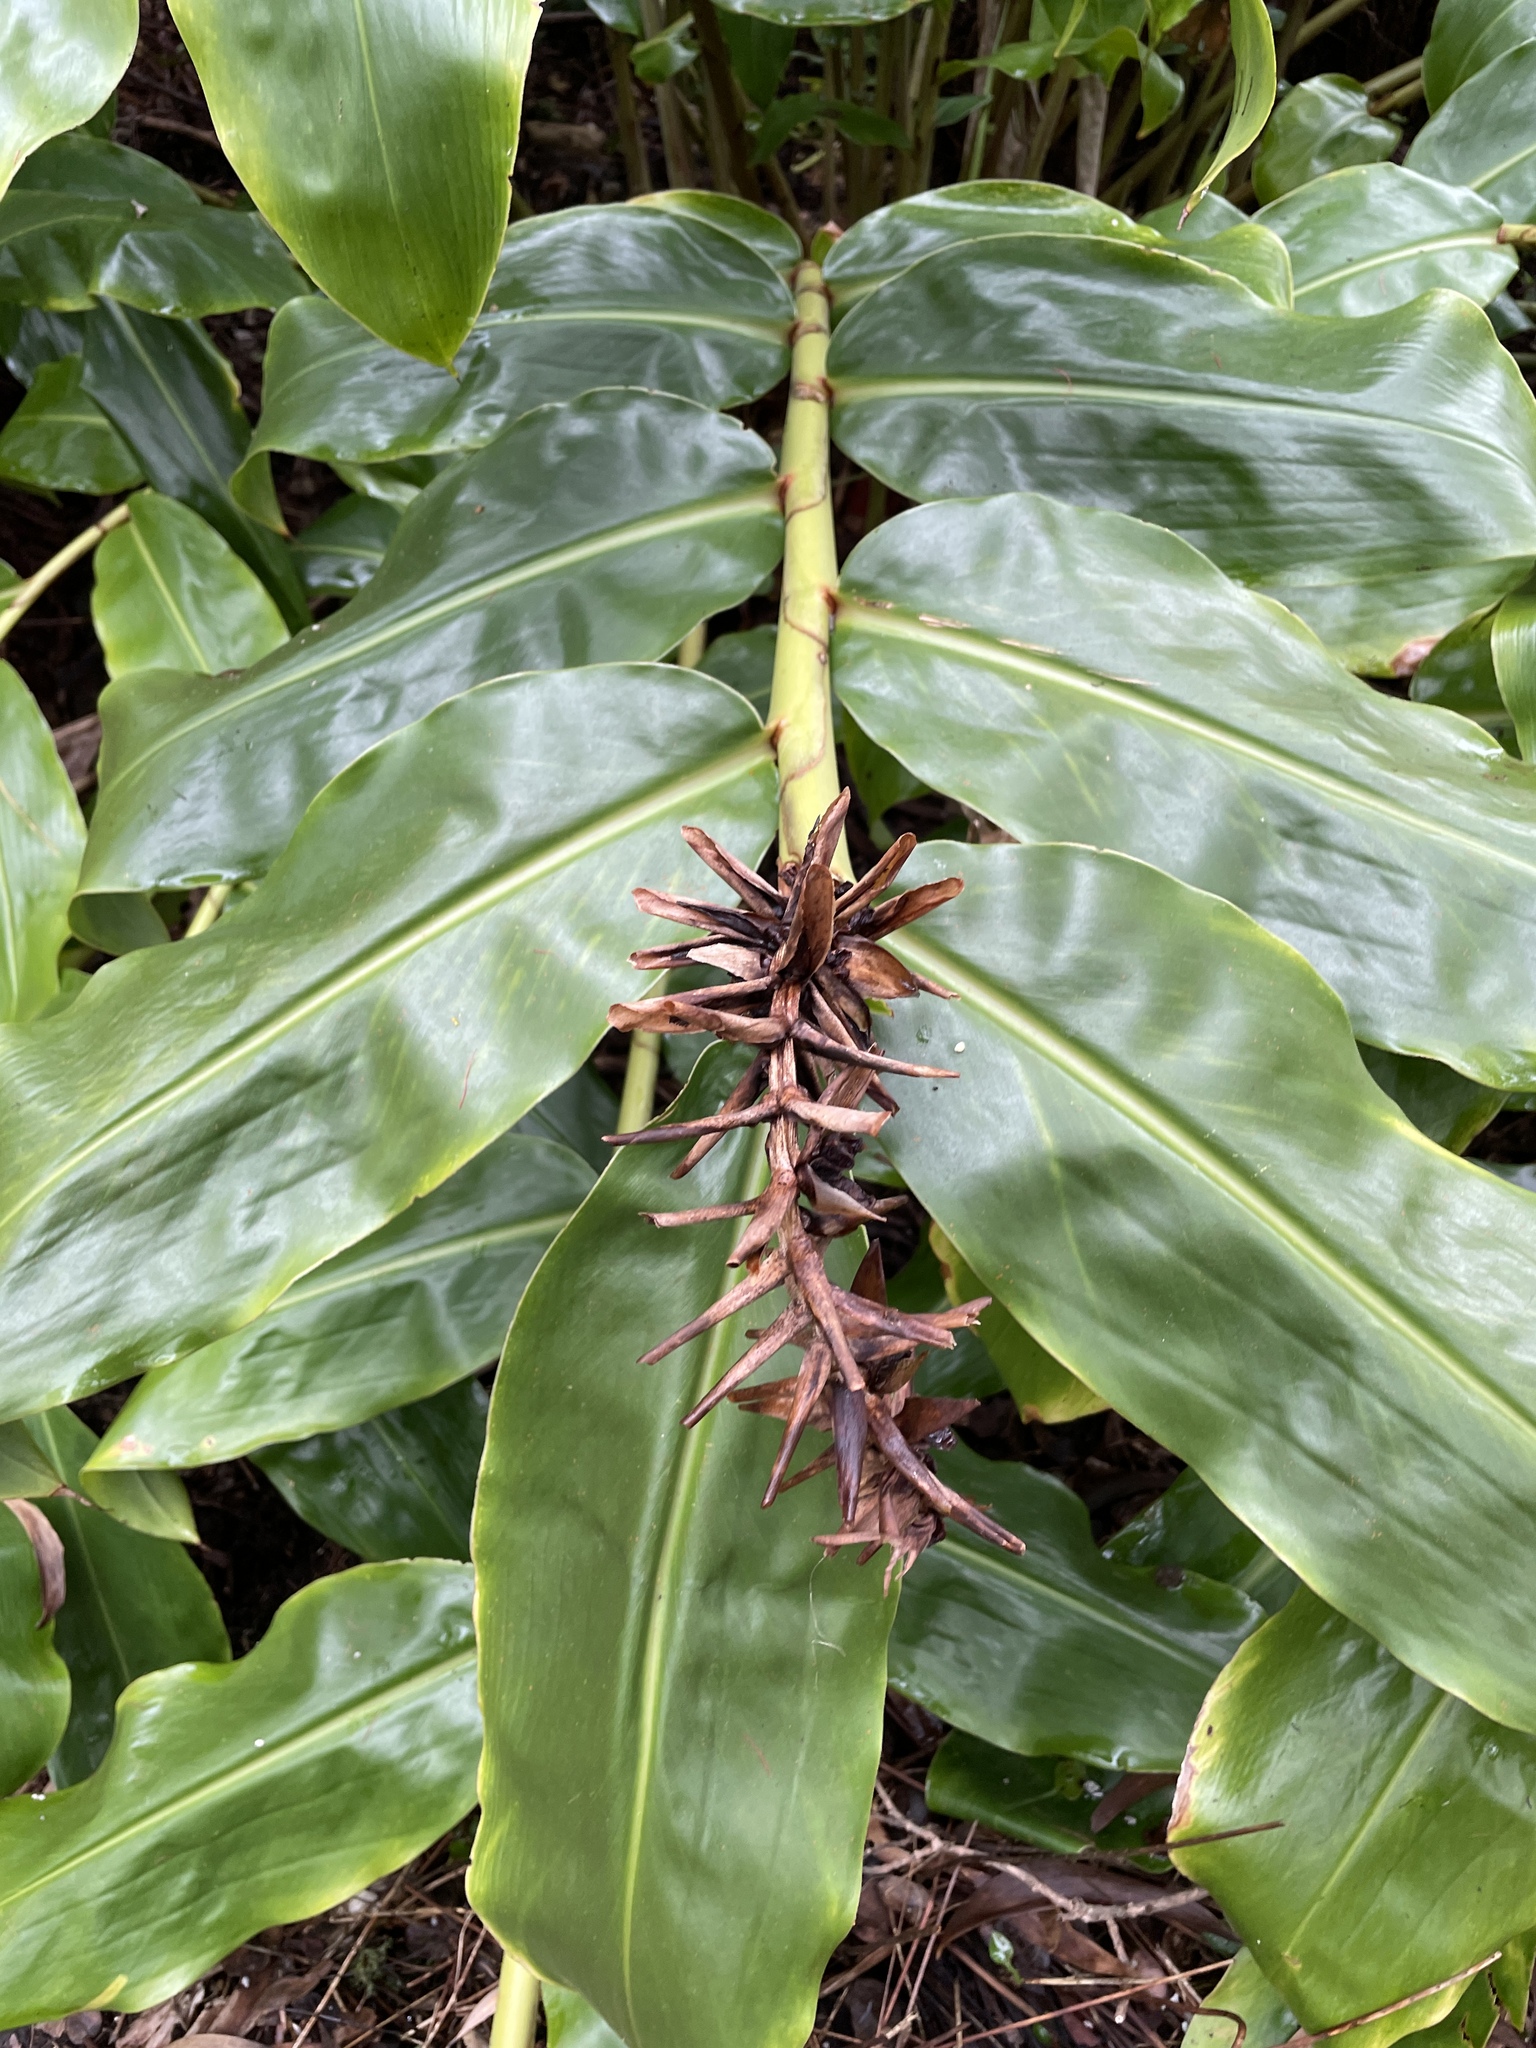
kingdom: Plantae
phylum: Tracheophyta
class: Liliopsida
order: Zingiberales
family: Zingiberaceae
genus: Hedychium
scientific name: Hedychium gardnerianum
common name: Himalayan ginger
